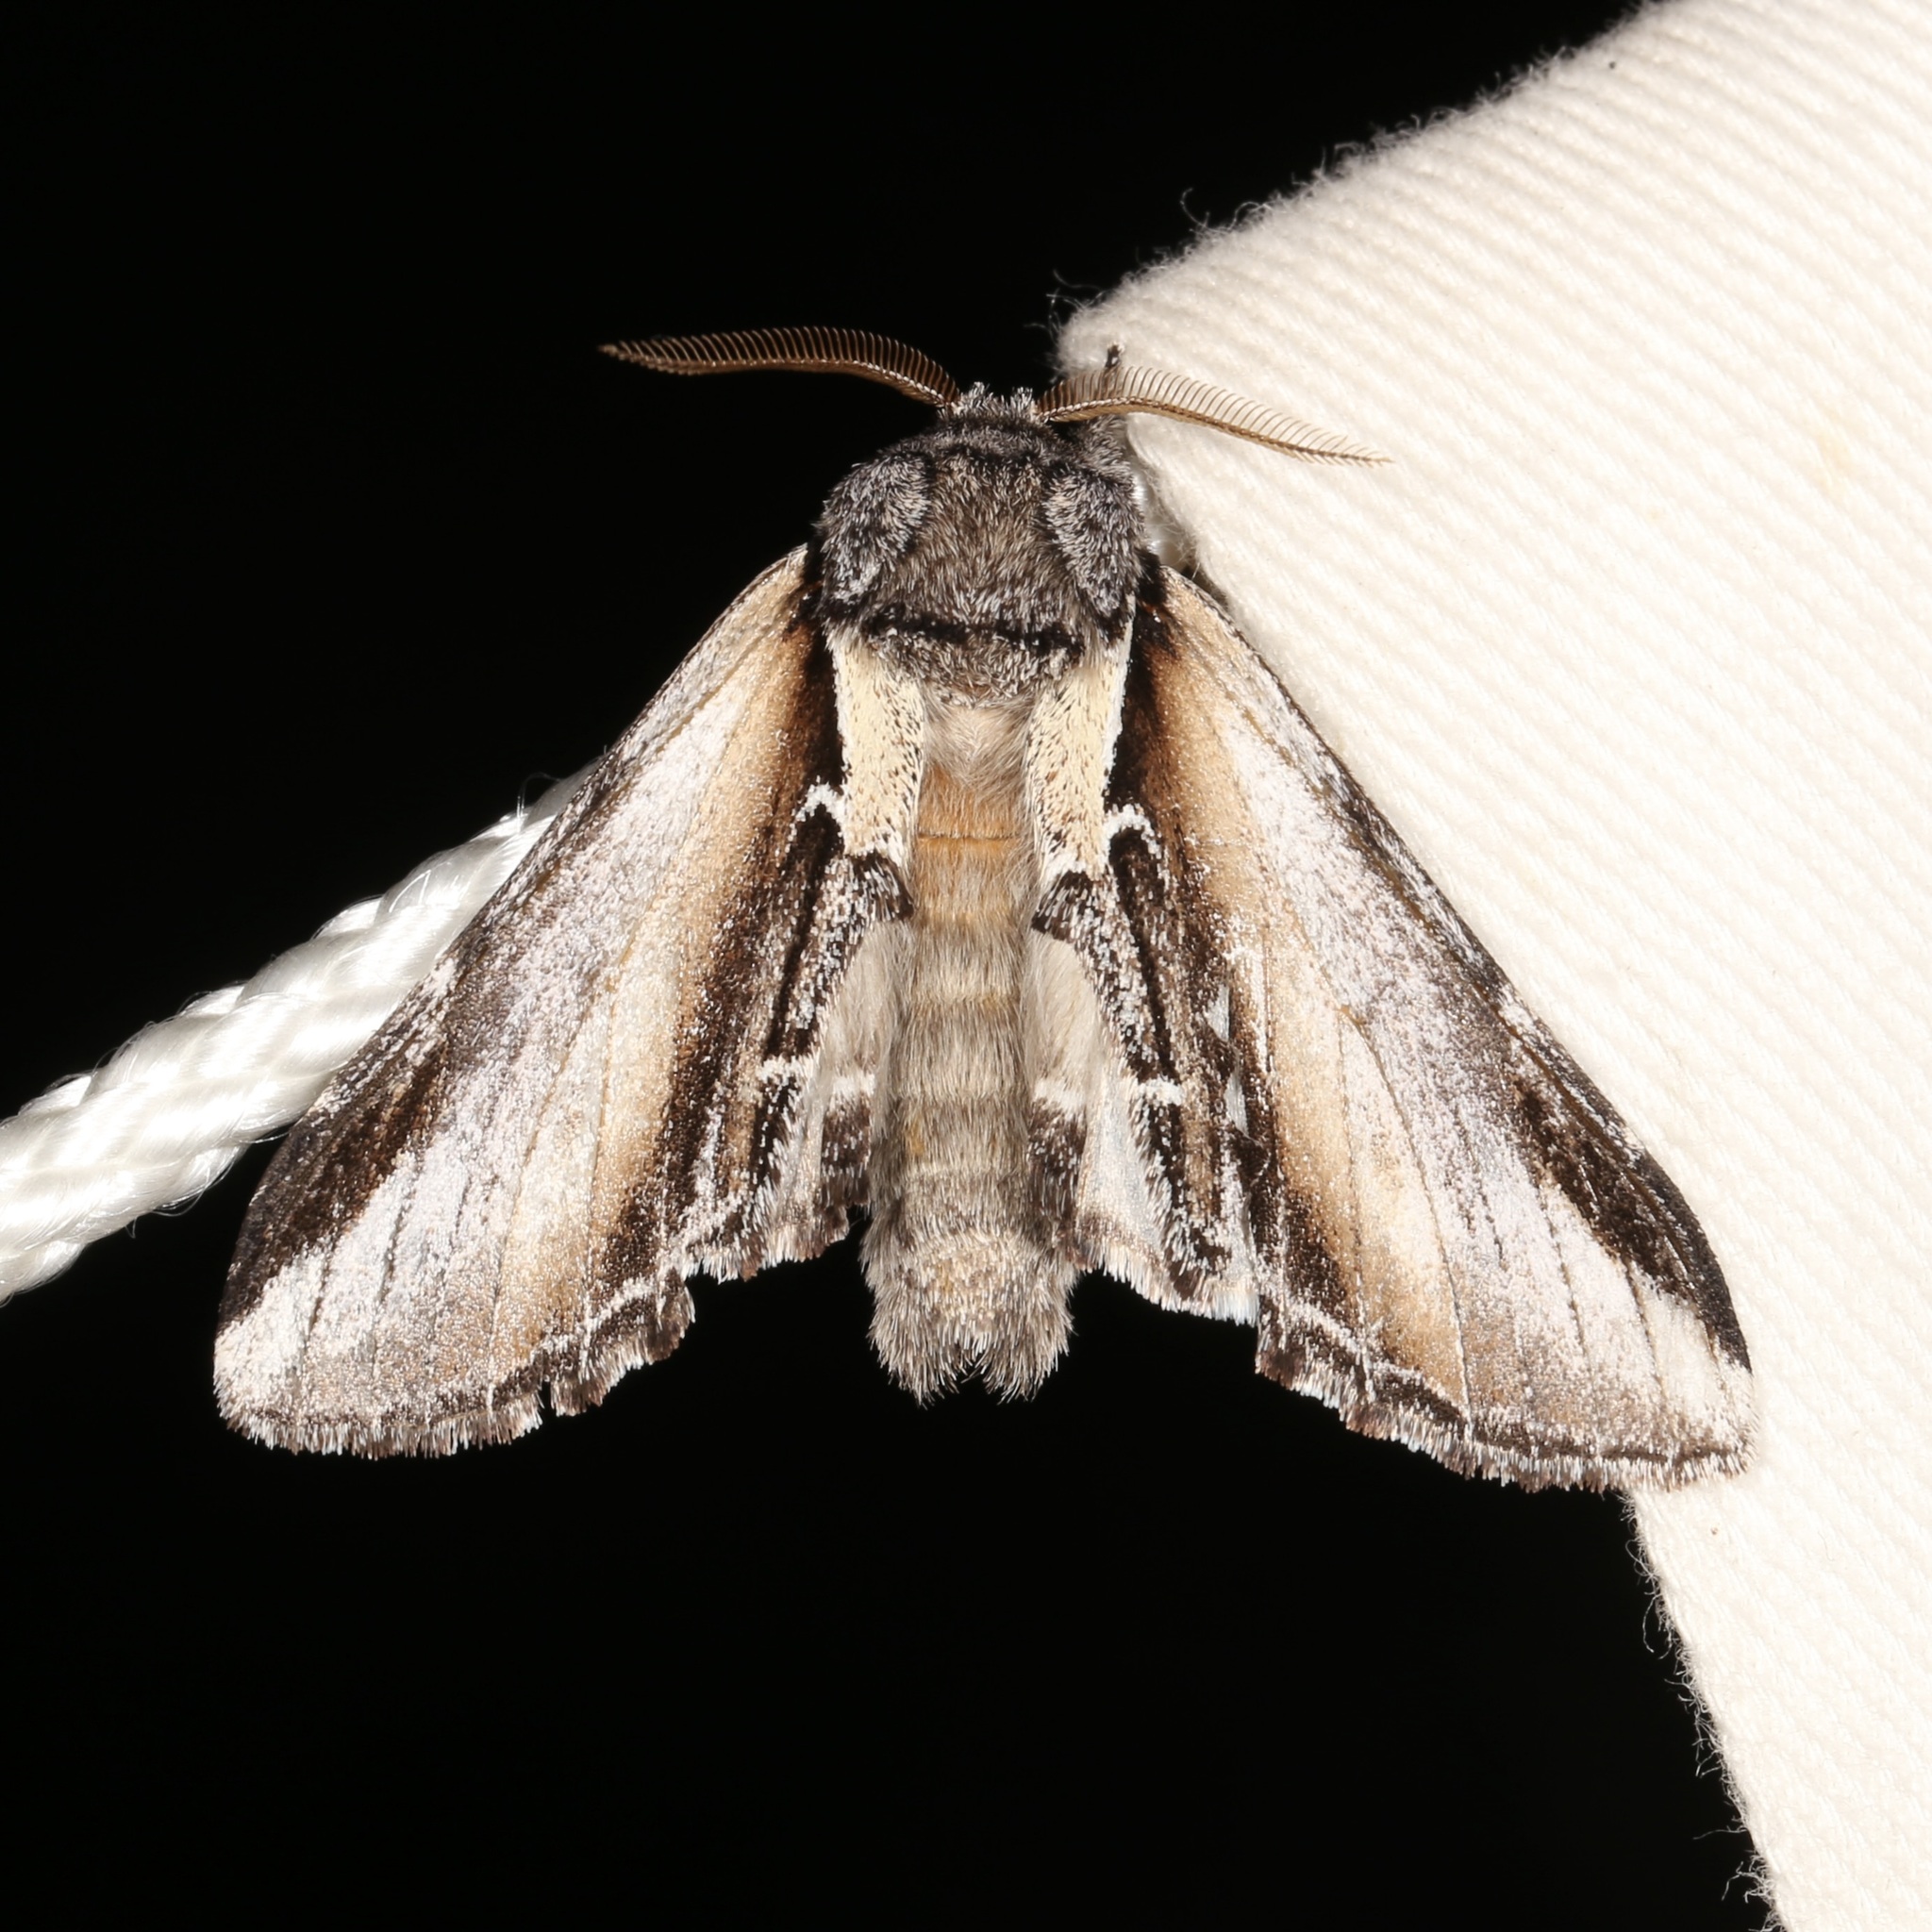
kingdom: Animalia
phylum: Arthropoda
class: Insecta
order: Lepidoptera
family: Notodontidae
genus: Pheosia
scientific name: Pheosia rimosa
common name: Black-rimmed prominent
